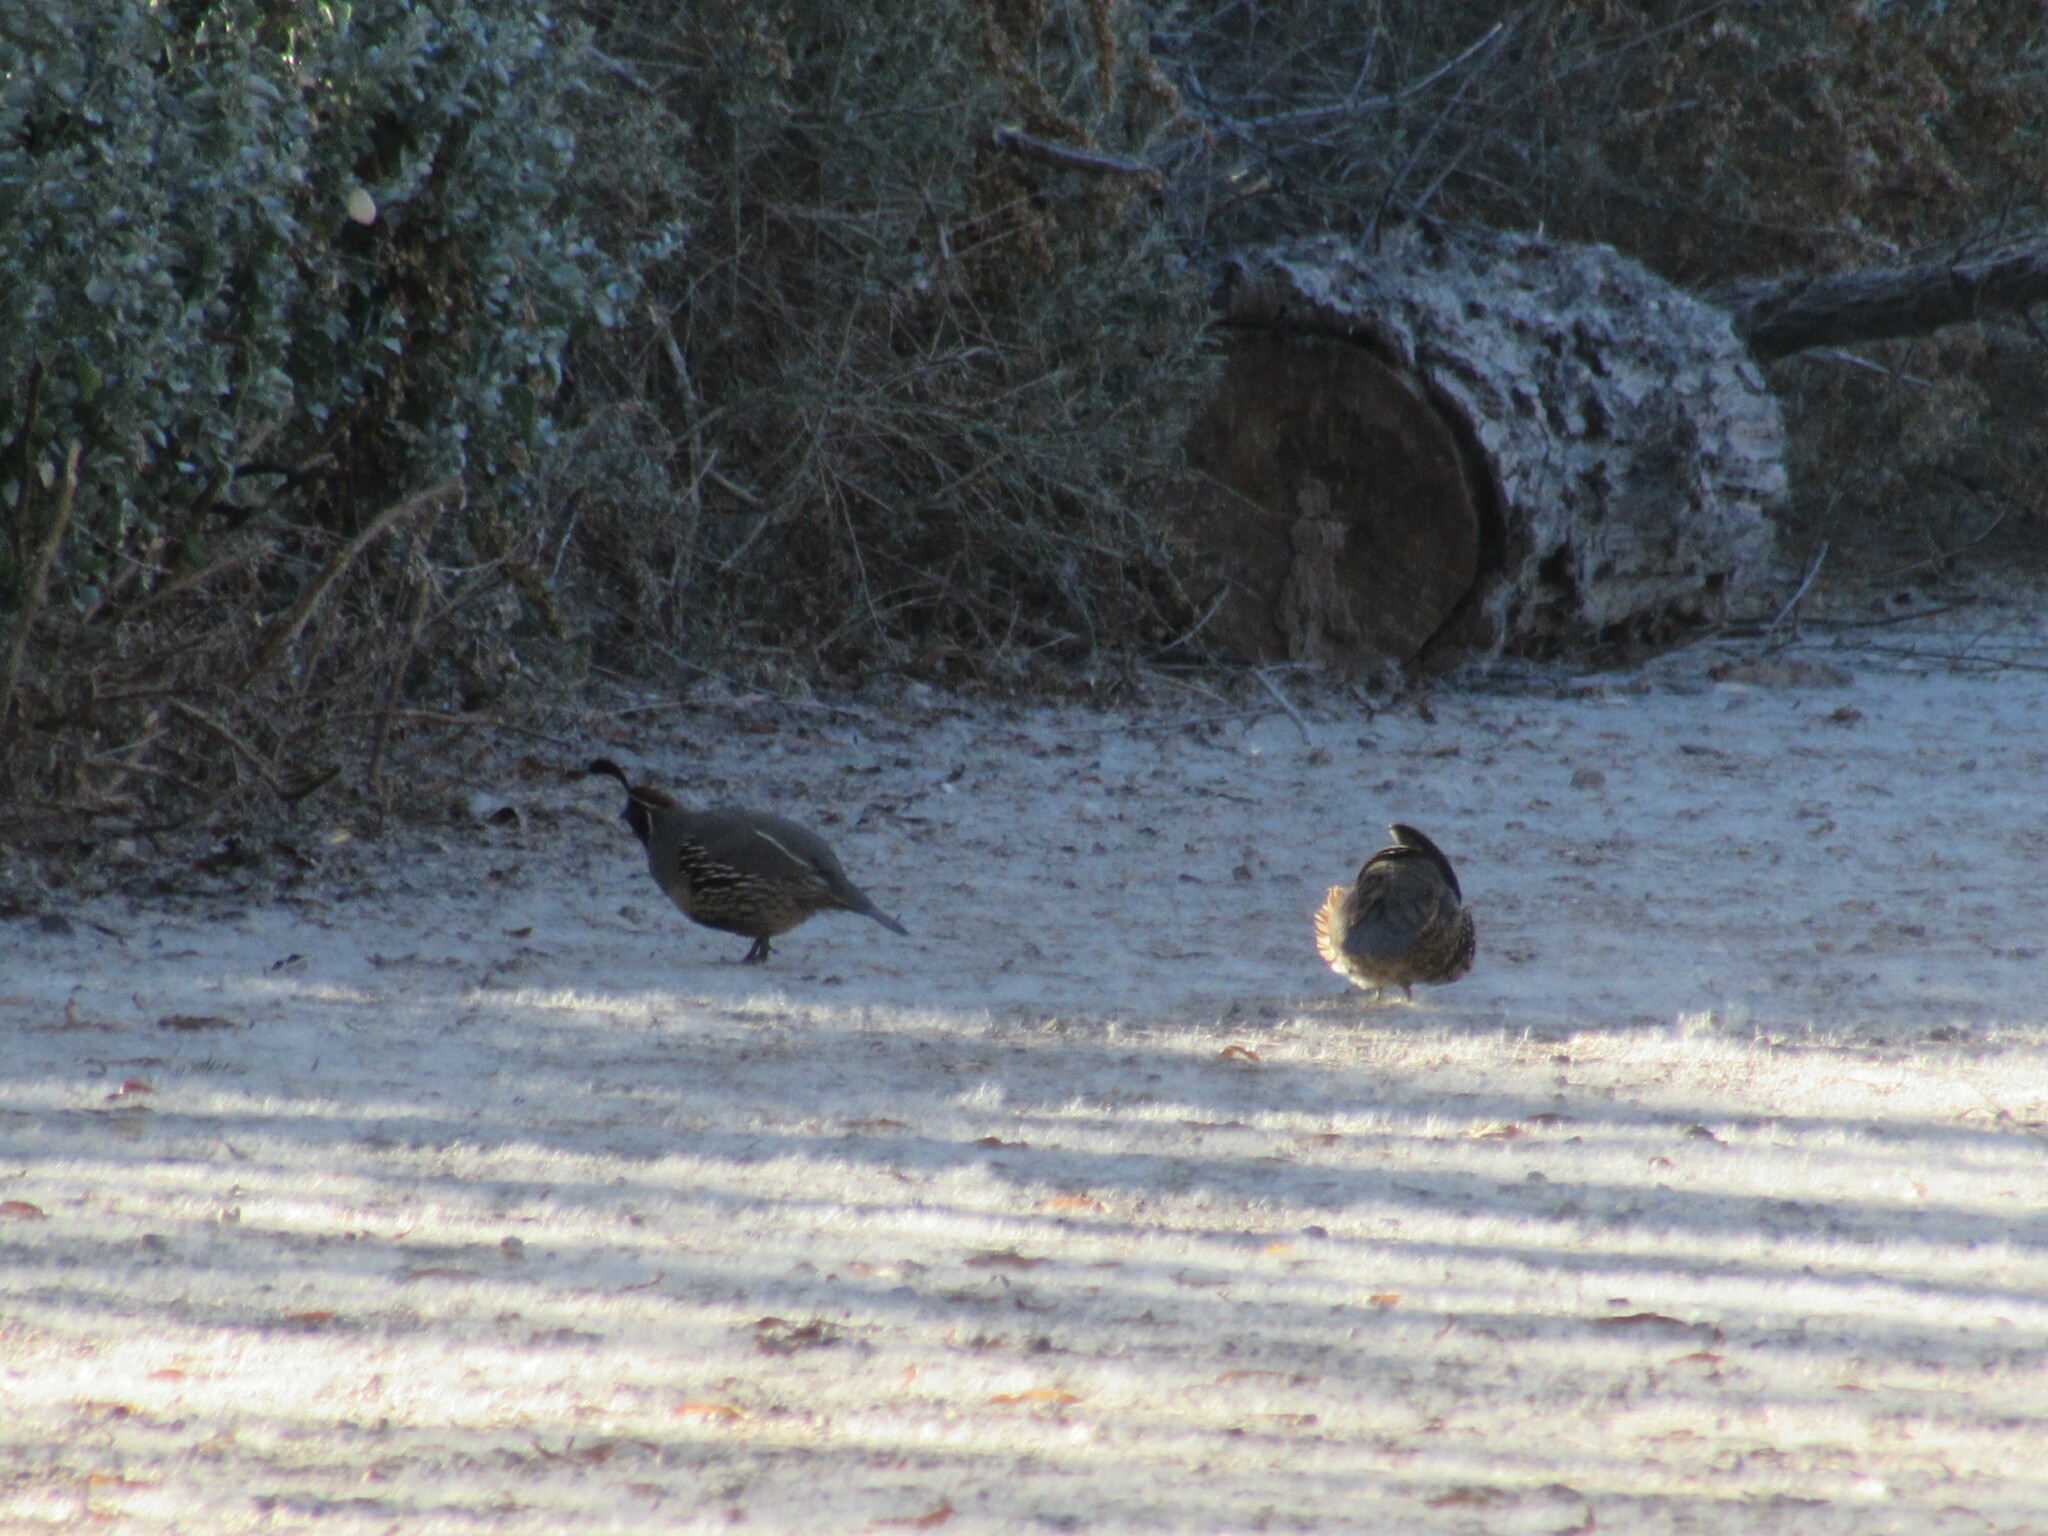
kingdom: Animalia
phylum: Chordata
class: Aves
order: Galliformes
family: Odontophoridae
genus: Callipepla
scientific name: Callipepla gambelii
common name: Gambel's quail
